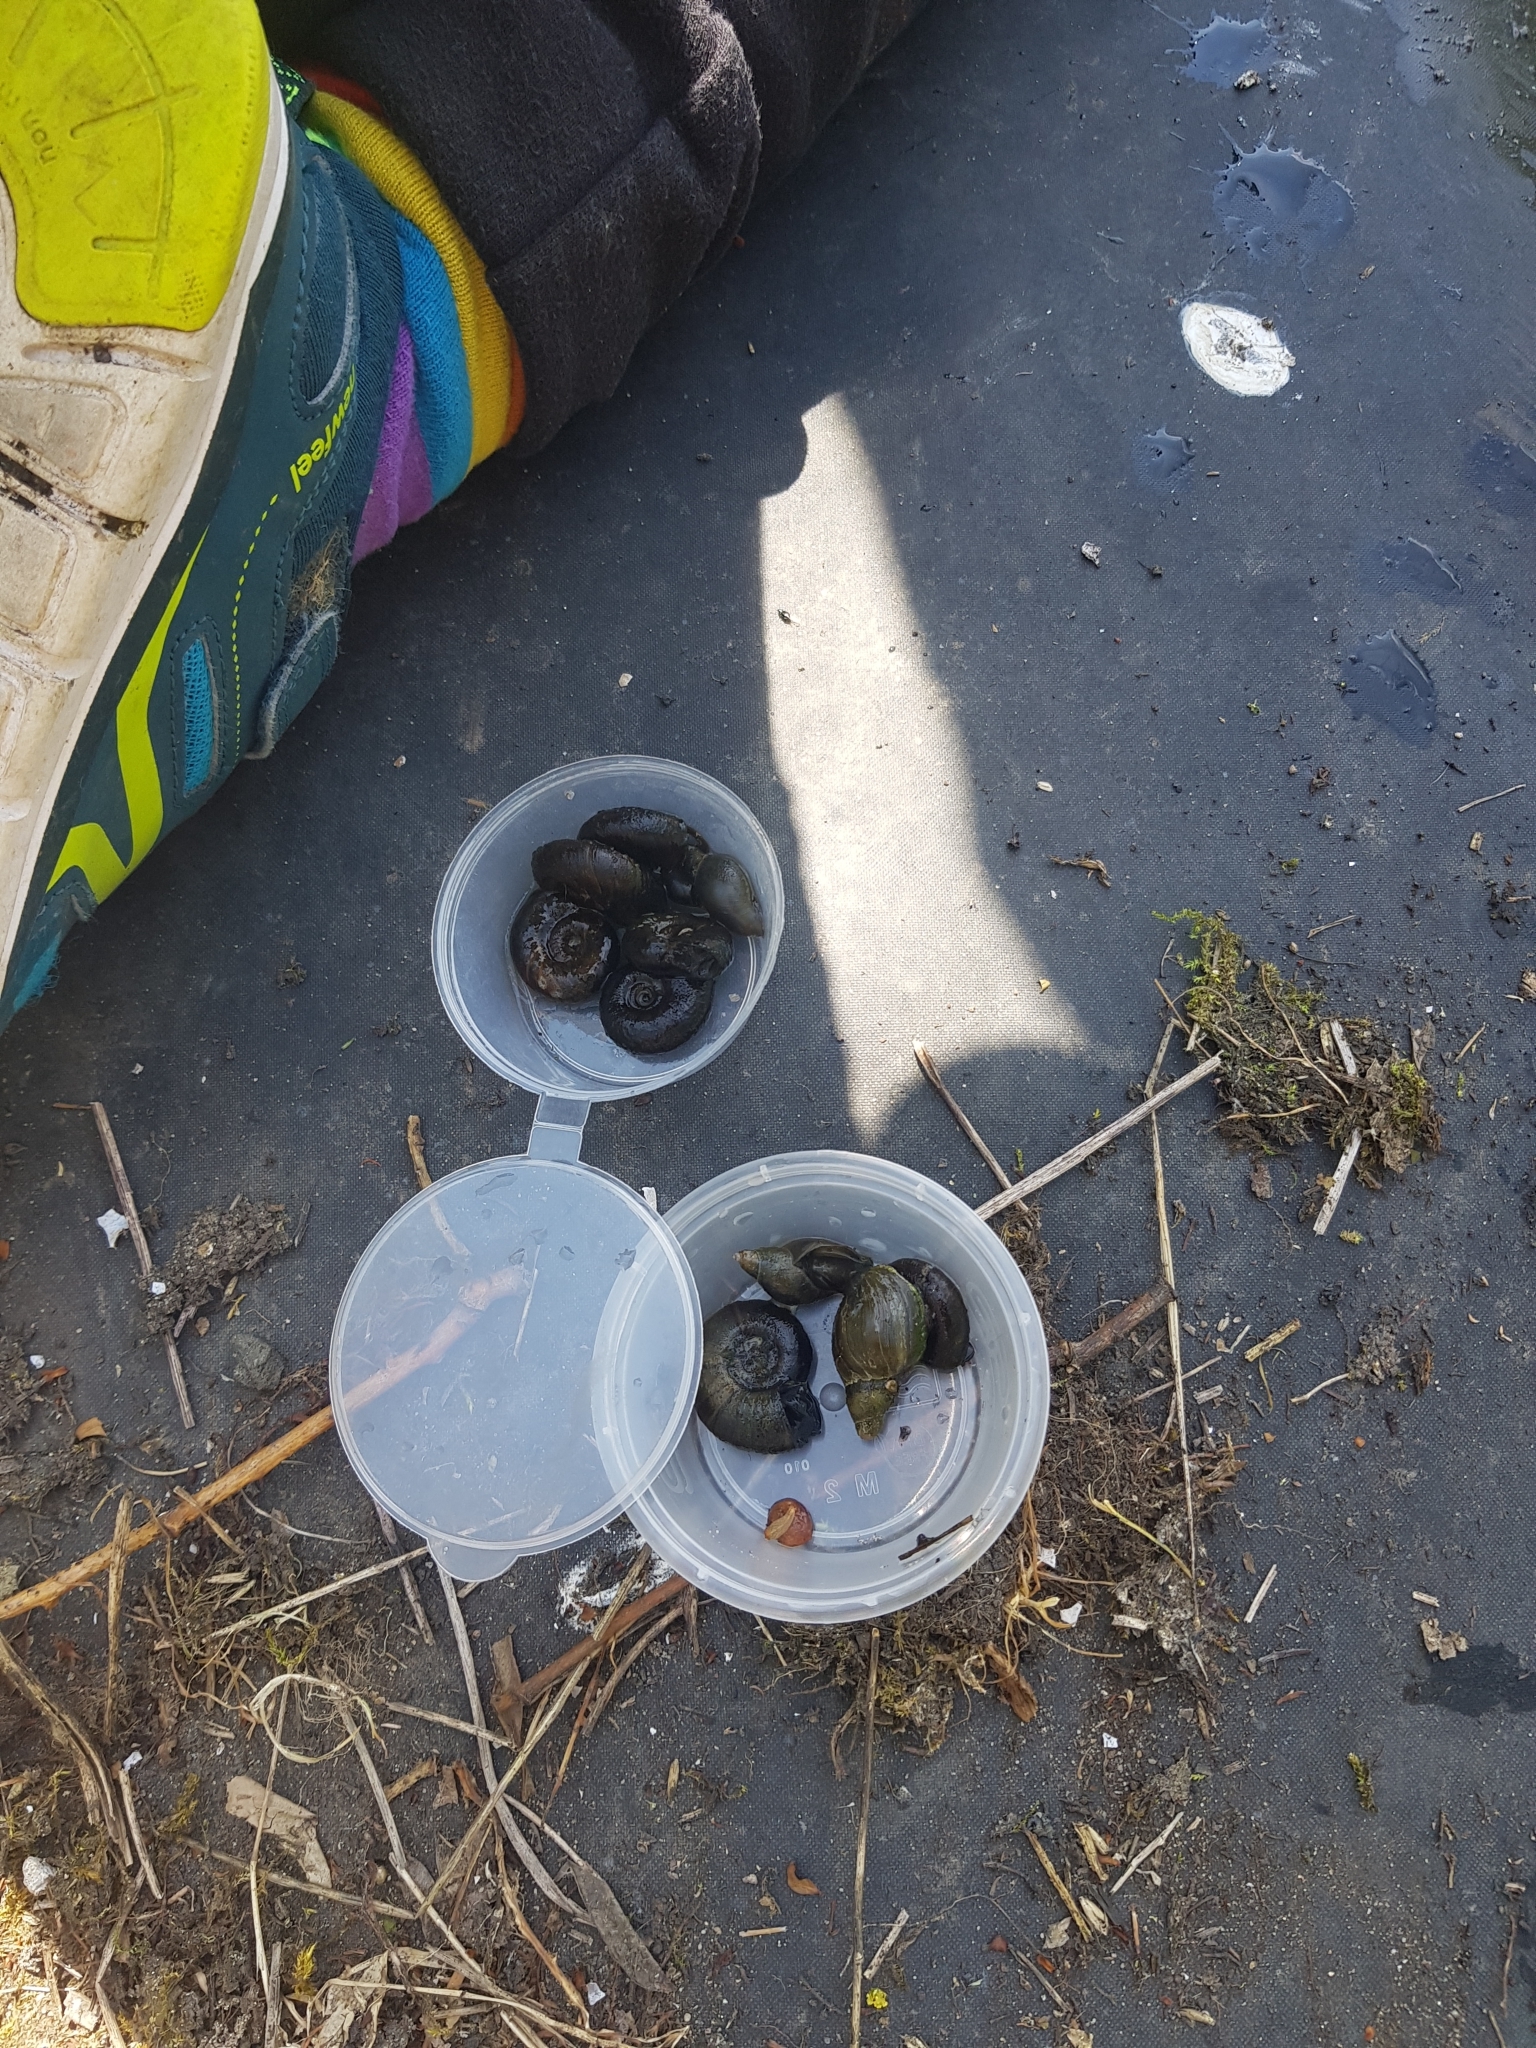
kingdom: Animalia
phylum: Mollusca
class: Gastropoda
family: Lymnaeidae
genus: Lymnaea
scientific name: Lymnaea stagnalis
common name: Great pond snail
